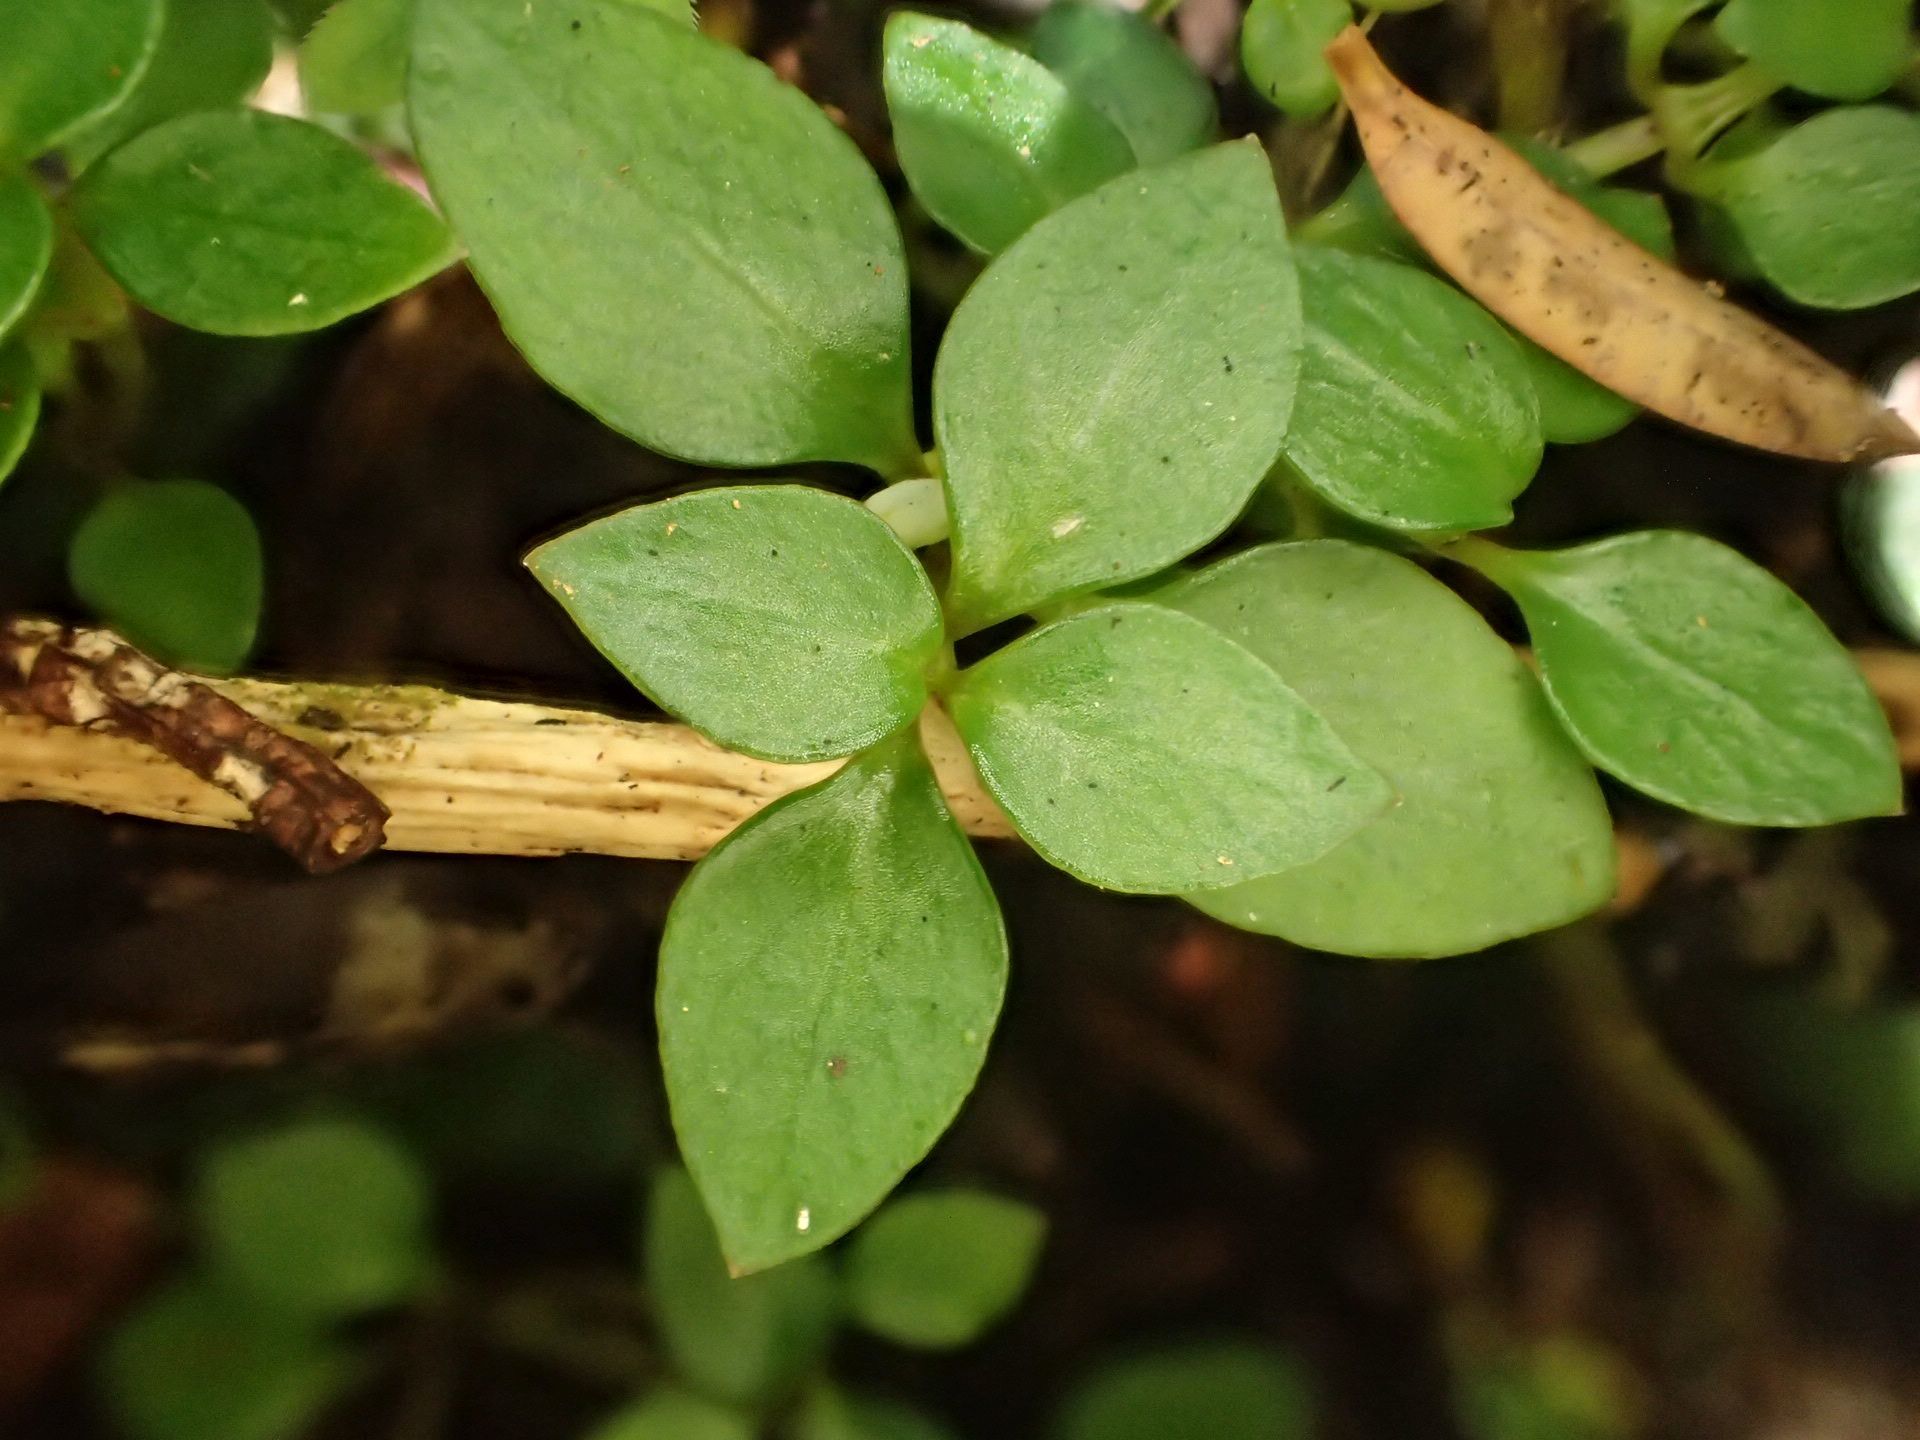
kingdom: Plantae
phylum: Tracheophyta
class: Magnoliopsida
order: Gentianales
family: Rubiaceae
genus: Nertera
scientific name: Nertera granadensis
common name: Beadplant
